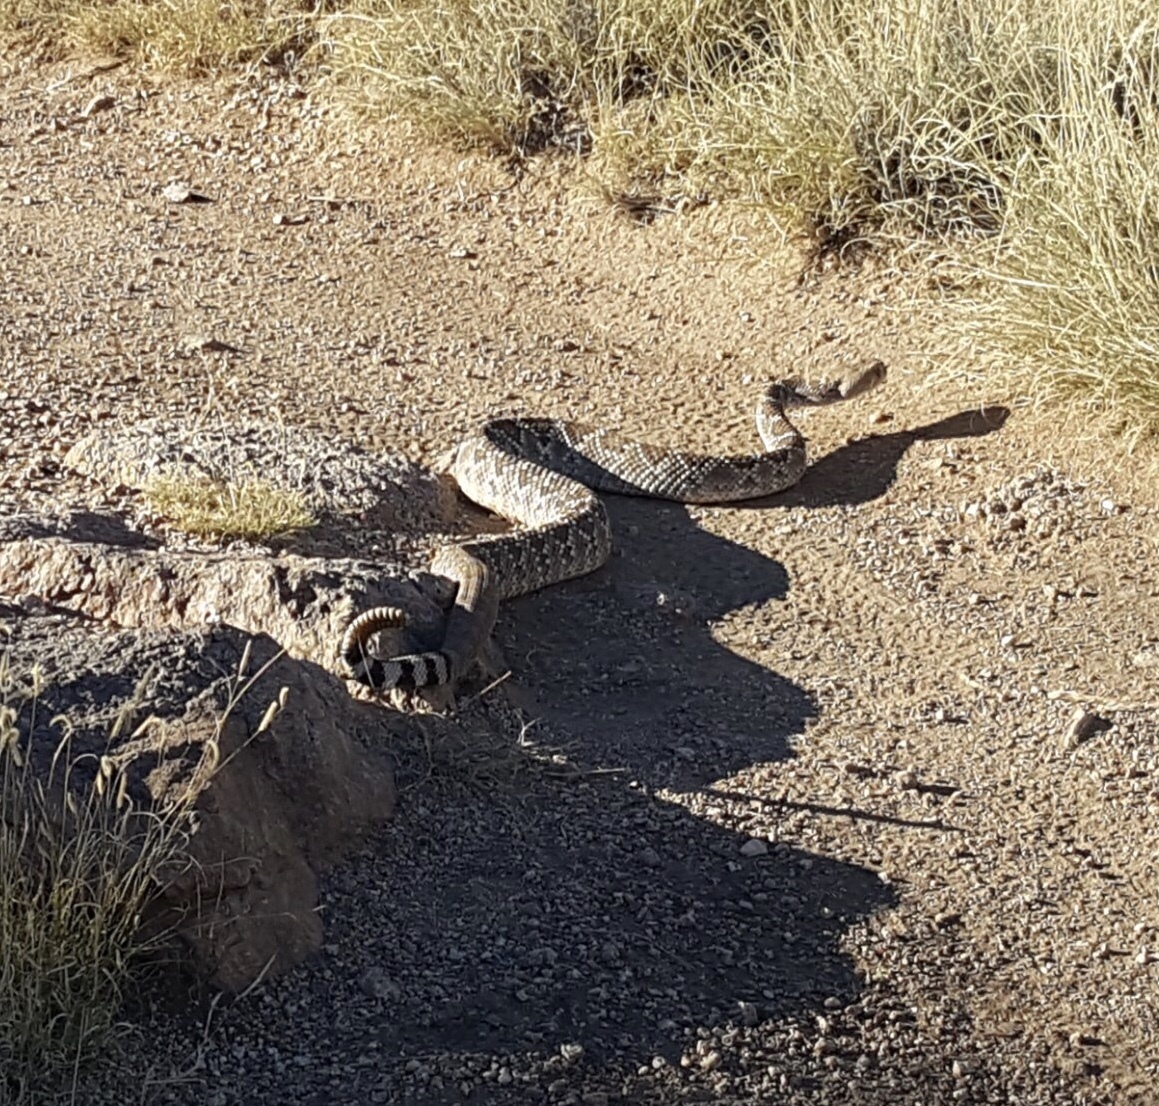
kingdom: Animalia
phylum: Chordata
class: Squamata
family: Viperidae
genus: Crotalus
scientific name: Crotalus atrox
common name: Western diamond-backed rattlesnake
